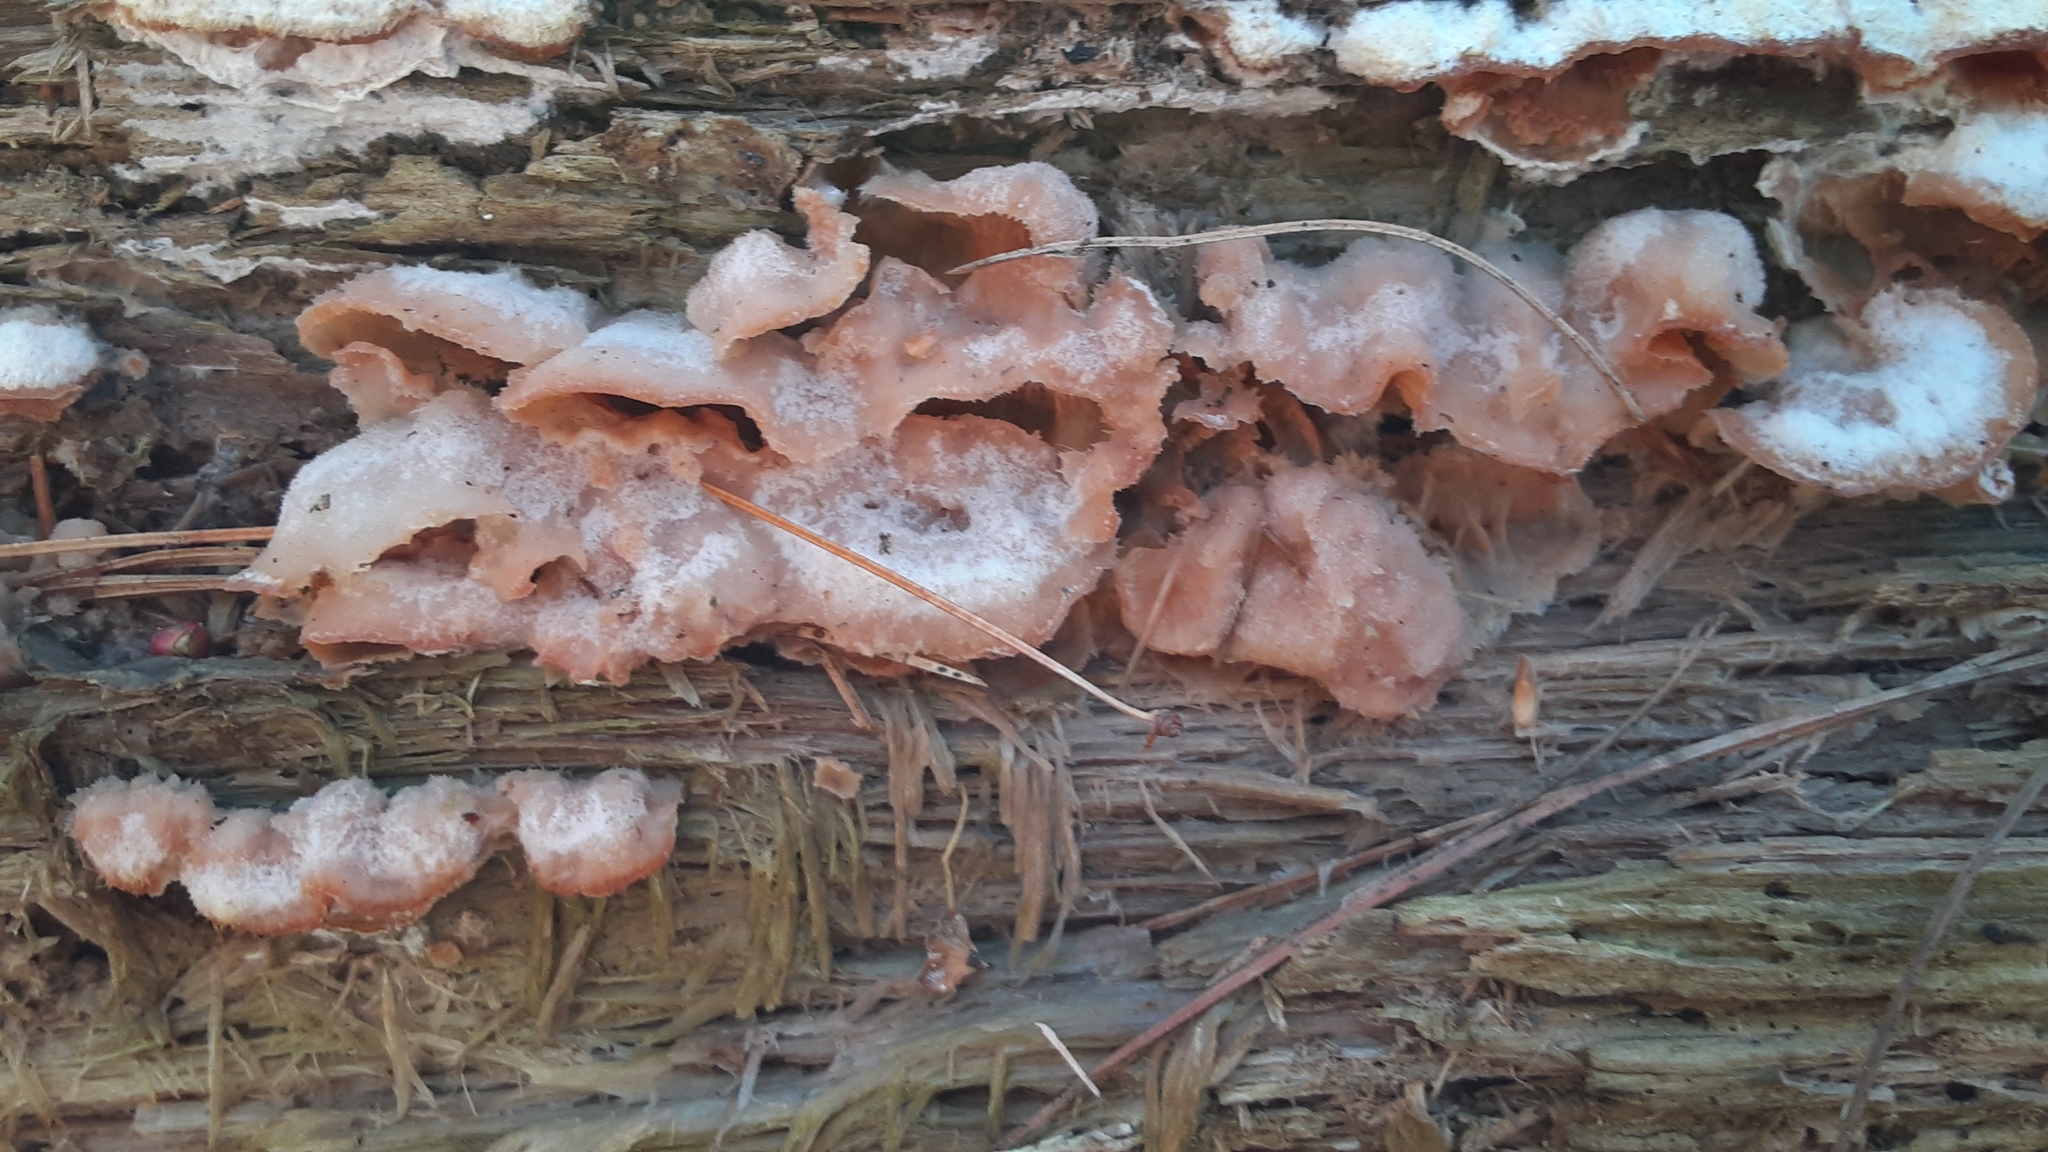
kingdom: Fungi
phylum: Basidiomycota
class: Agaricomycetes
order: Polyporales
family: Meruliaceae
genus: Phlebia
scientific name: Phlebia tremellosa
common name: Jelly rot
